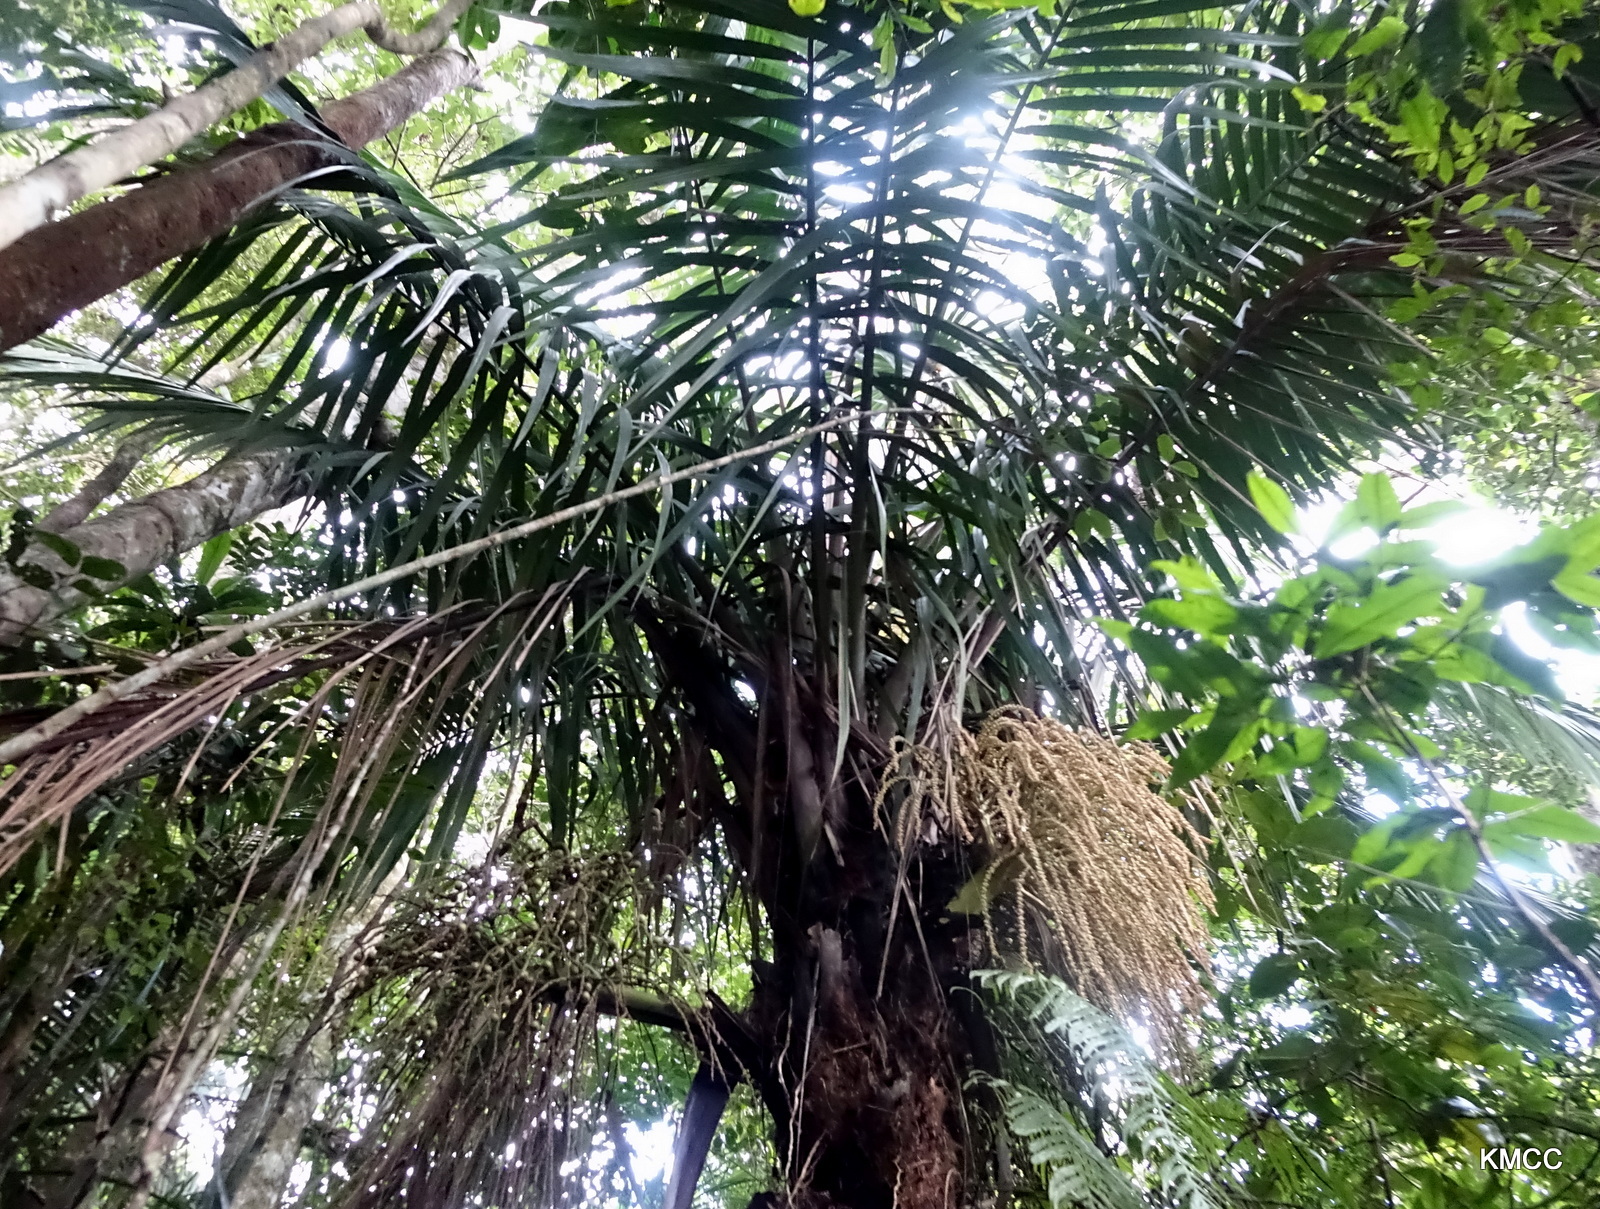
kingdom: Plantae
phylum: Tracheophyta
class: Liliopsida
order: Arecales
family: Arecaceae
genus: Dypsis
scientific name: Dypsis perrieri
